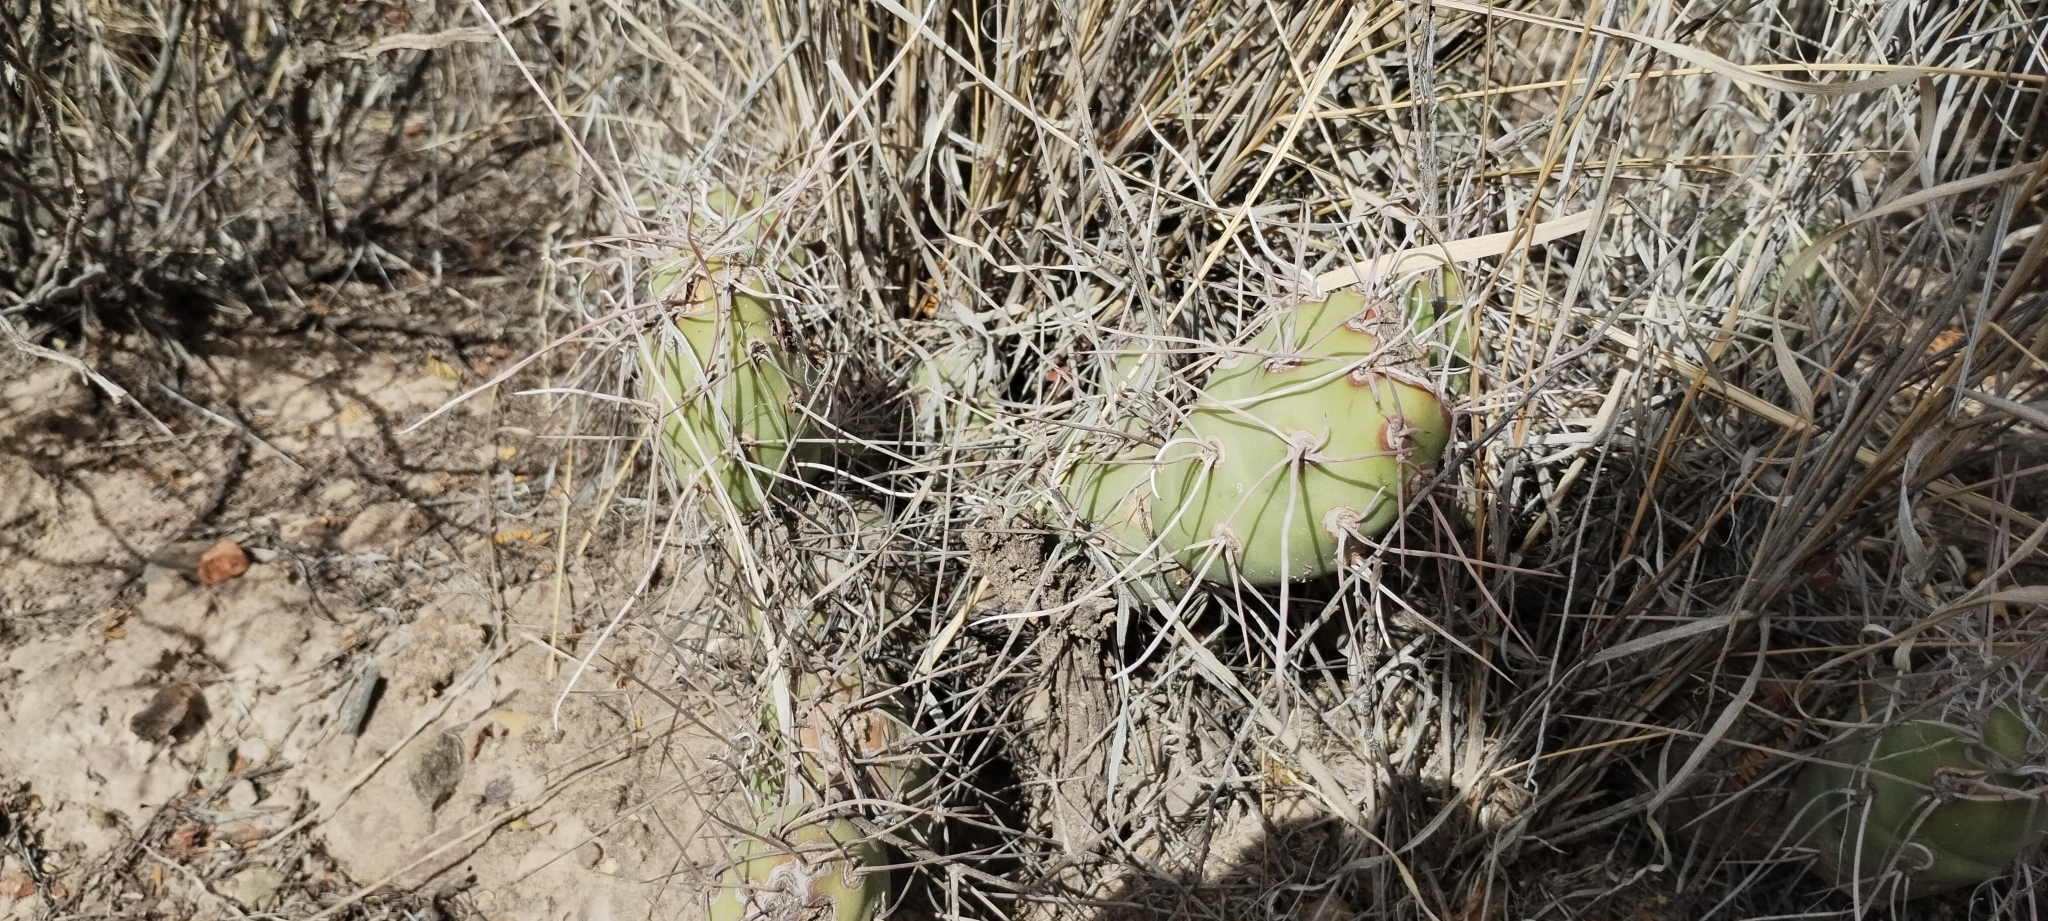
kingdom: Plantae
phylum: Tracheophyta
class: Magnoliopsida
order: Caryophyllales
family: Cactaceae
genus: Tephrocactus
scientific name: Tephrocactus aoracanthus
